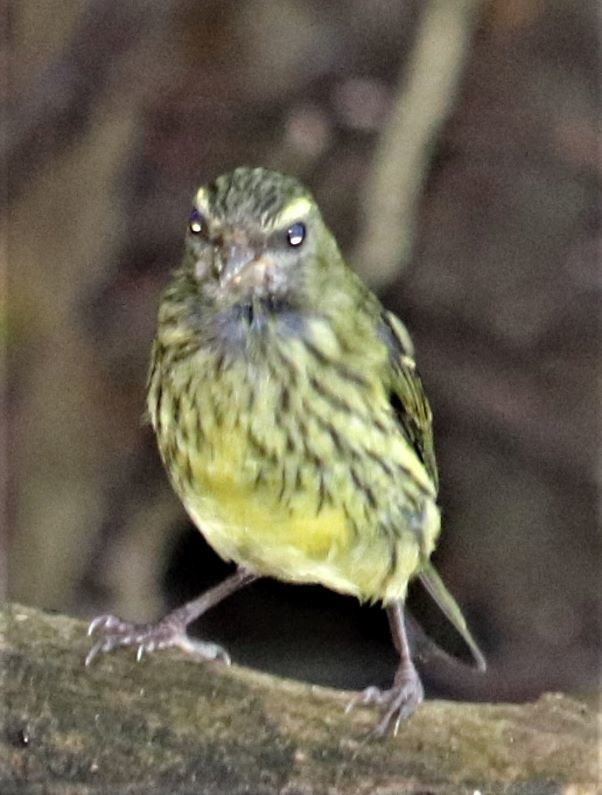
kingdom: Animalia
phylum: Chordata
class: Aves
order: Passeriformes
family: Fringillidae
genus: Crithagra
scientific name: Crithagra scotops
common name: Forest canary
